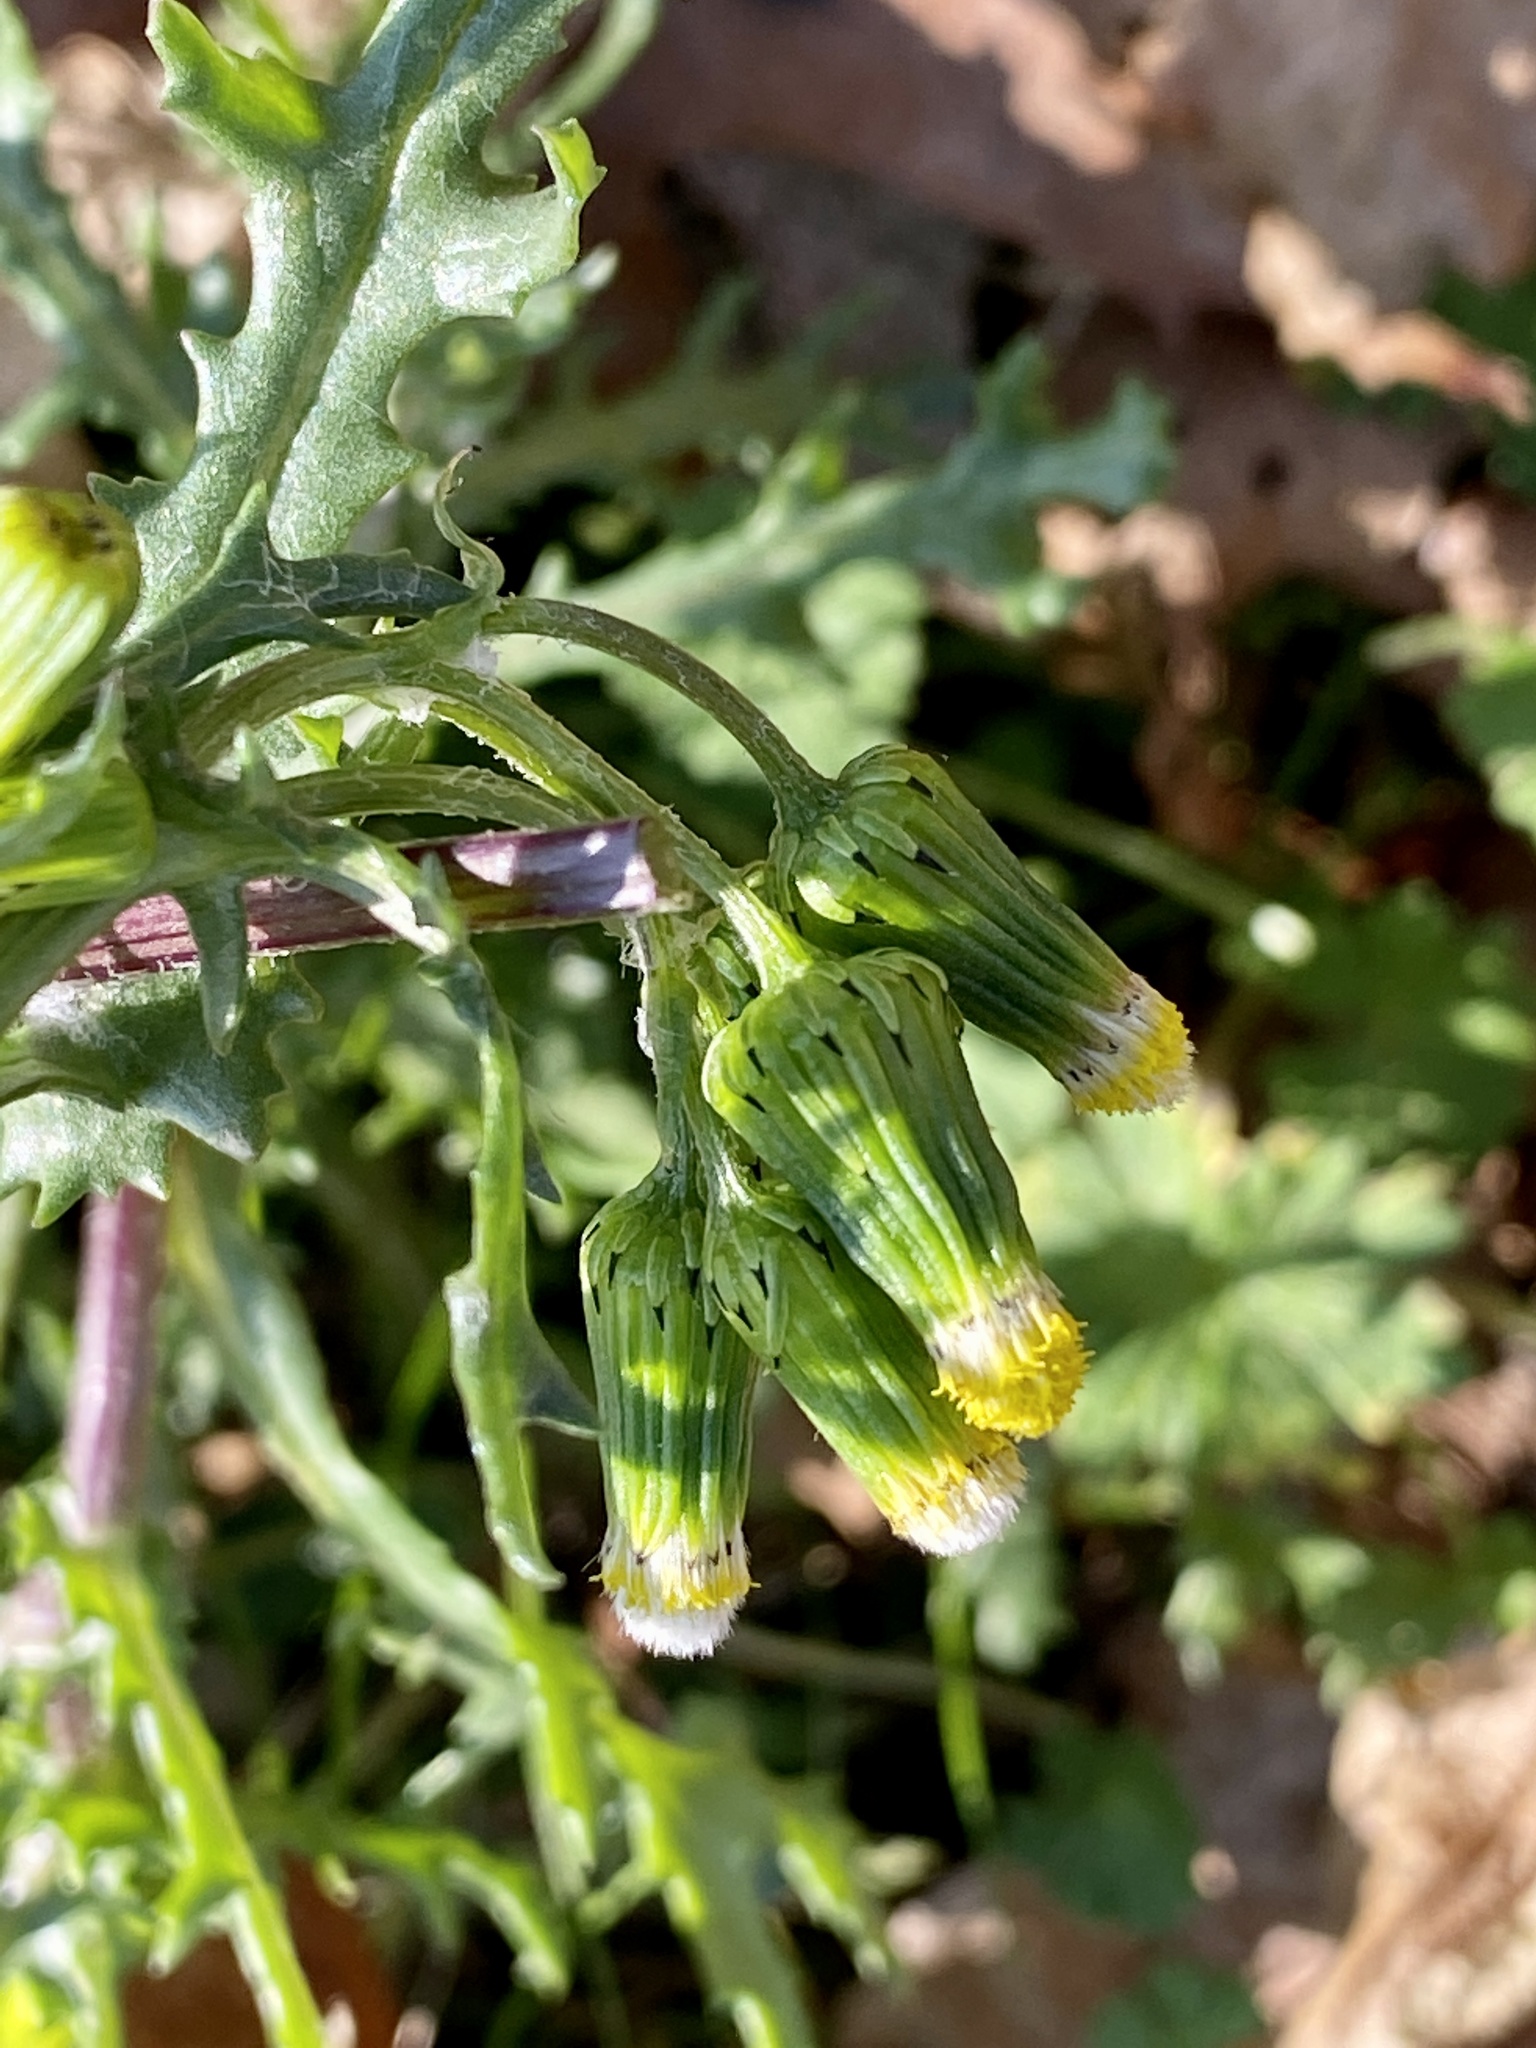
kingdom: Plantae
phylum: Tracheophyta
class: Magnoliopsida
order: Asterales
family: Asteraceae
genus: Senecio
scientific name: Senecio vulgaris
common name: Old-man-in-the-spring
